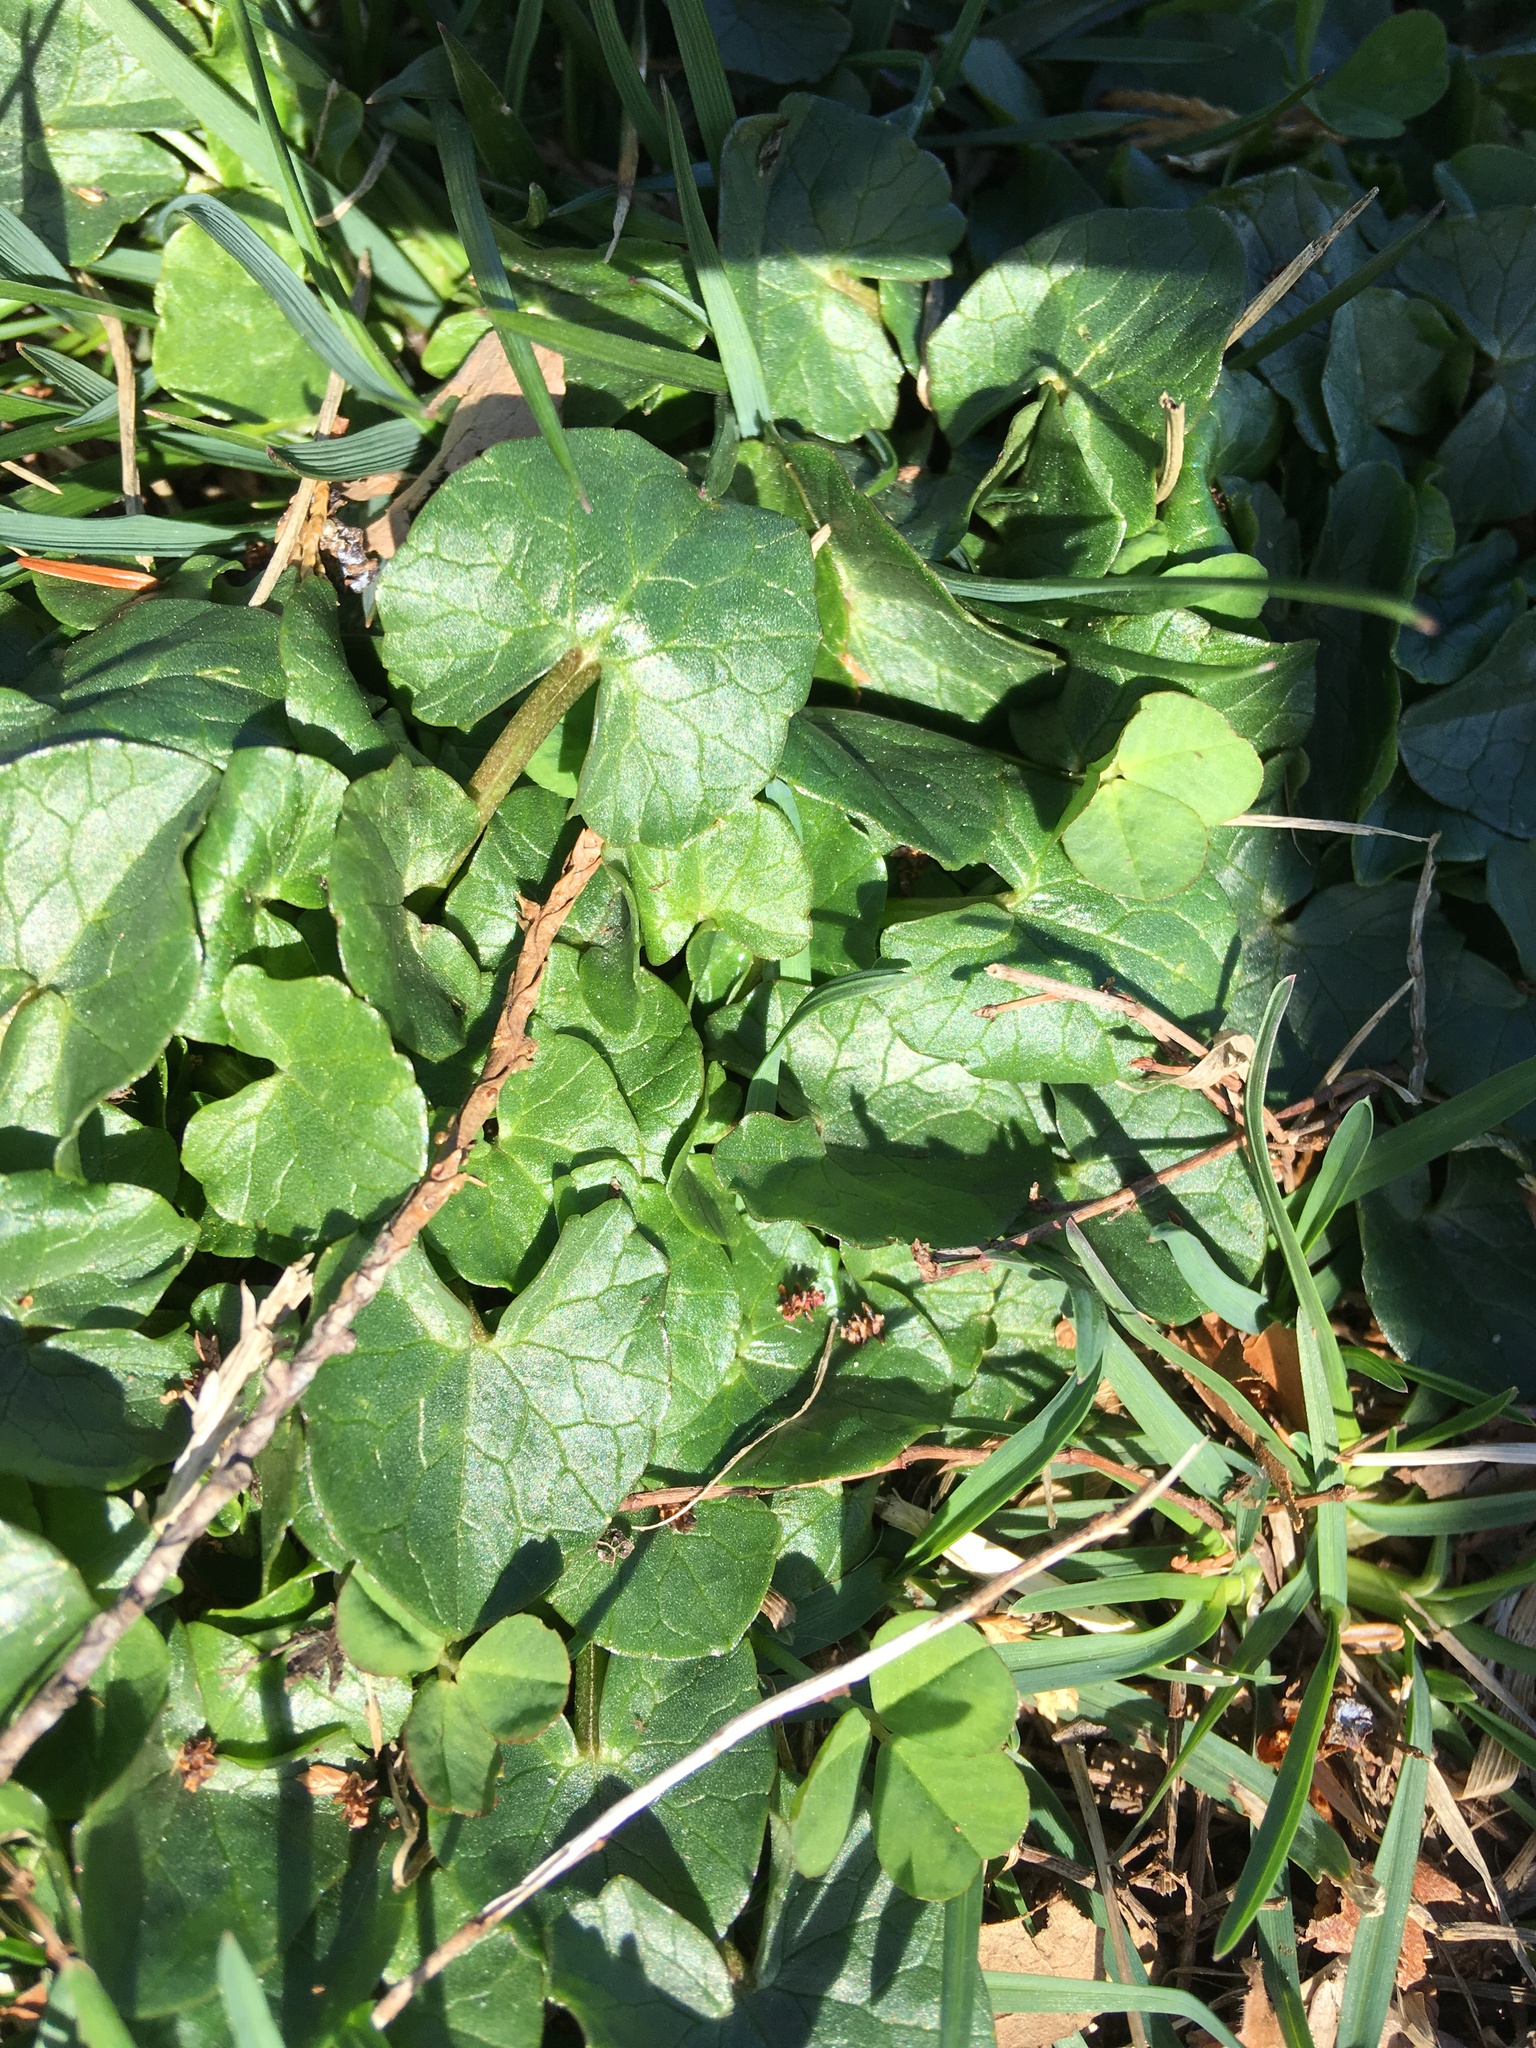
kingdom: Plantae
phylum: Tracheophyta
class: Magnoliopsida
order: Ranunculales
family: Ranunculaceae
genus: Ficaria
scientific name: Ficaria verna
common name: Lesser celandine
